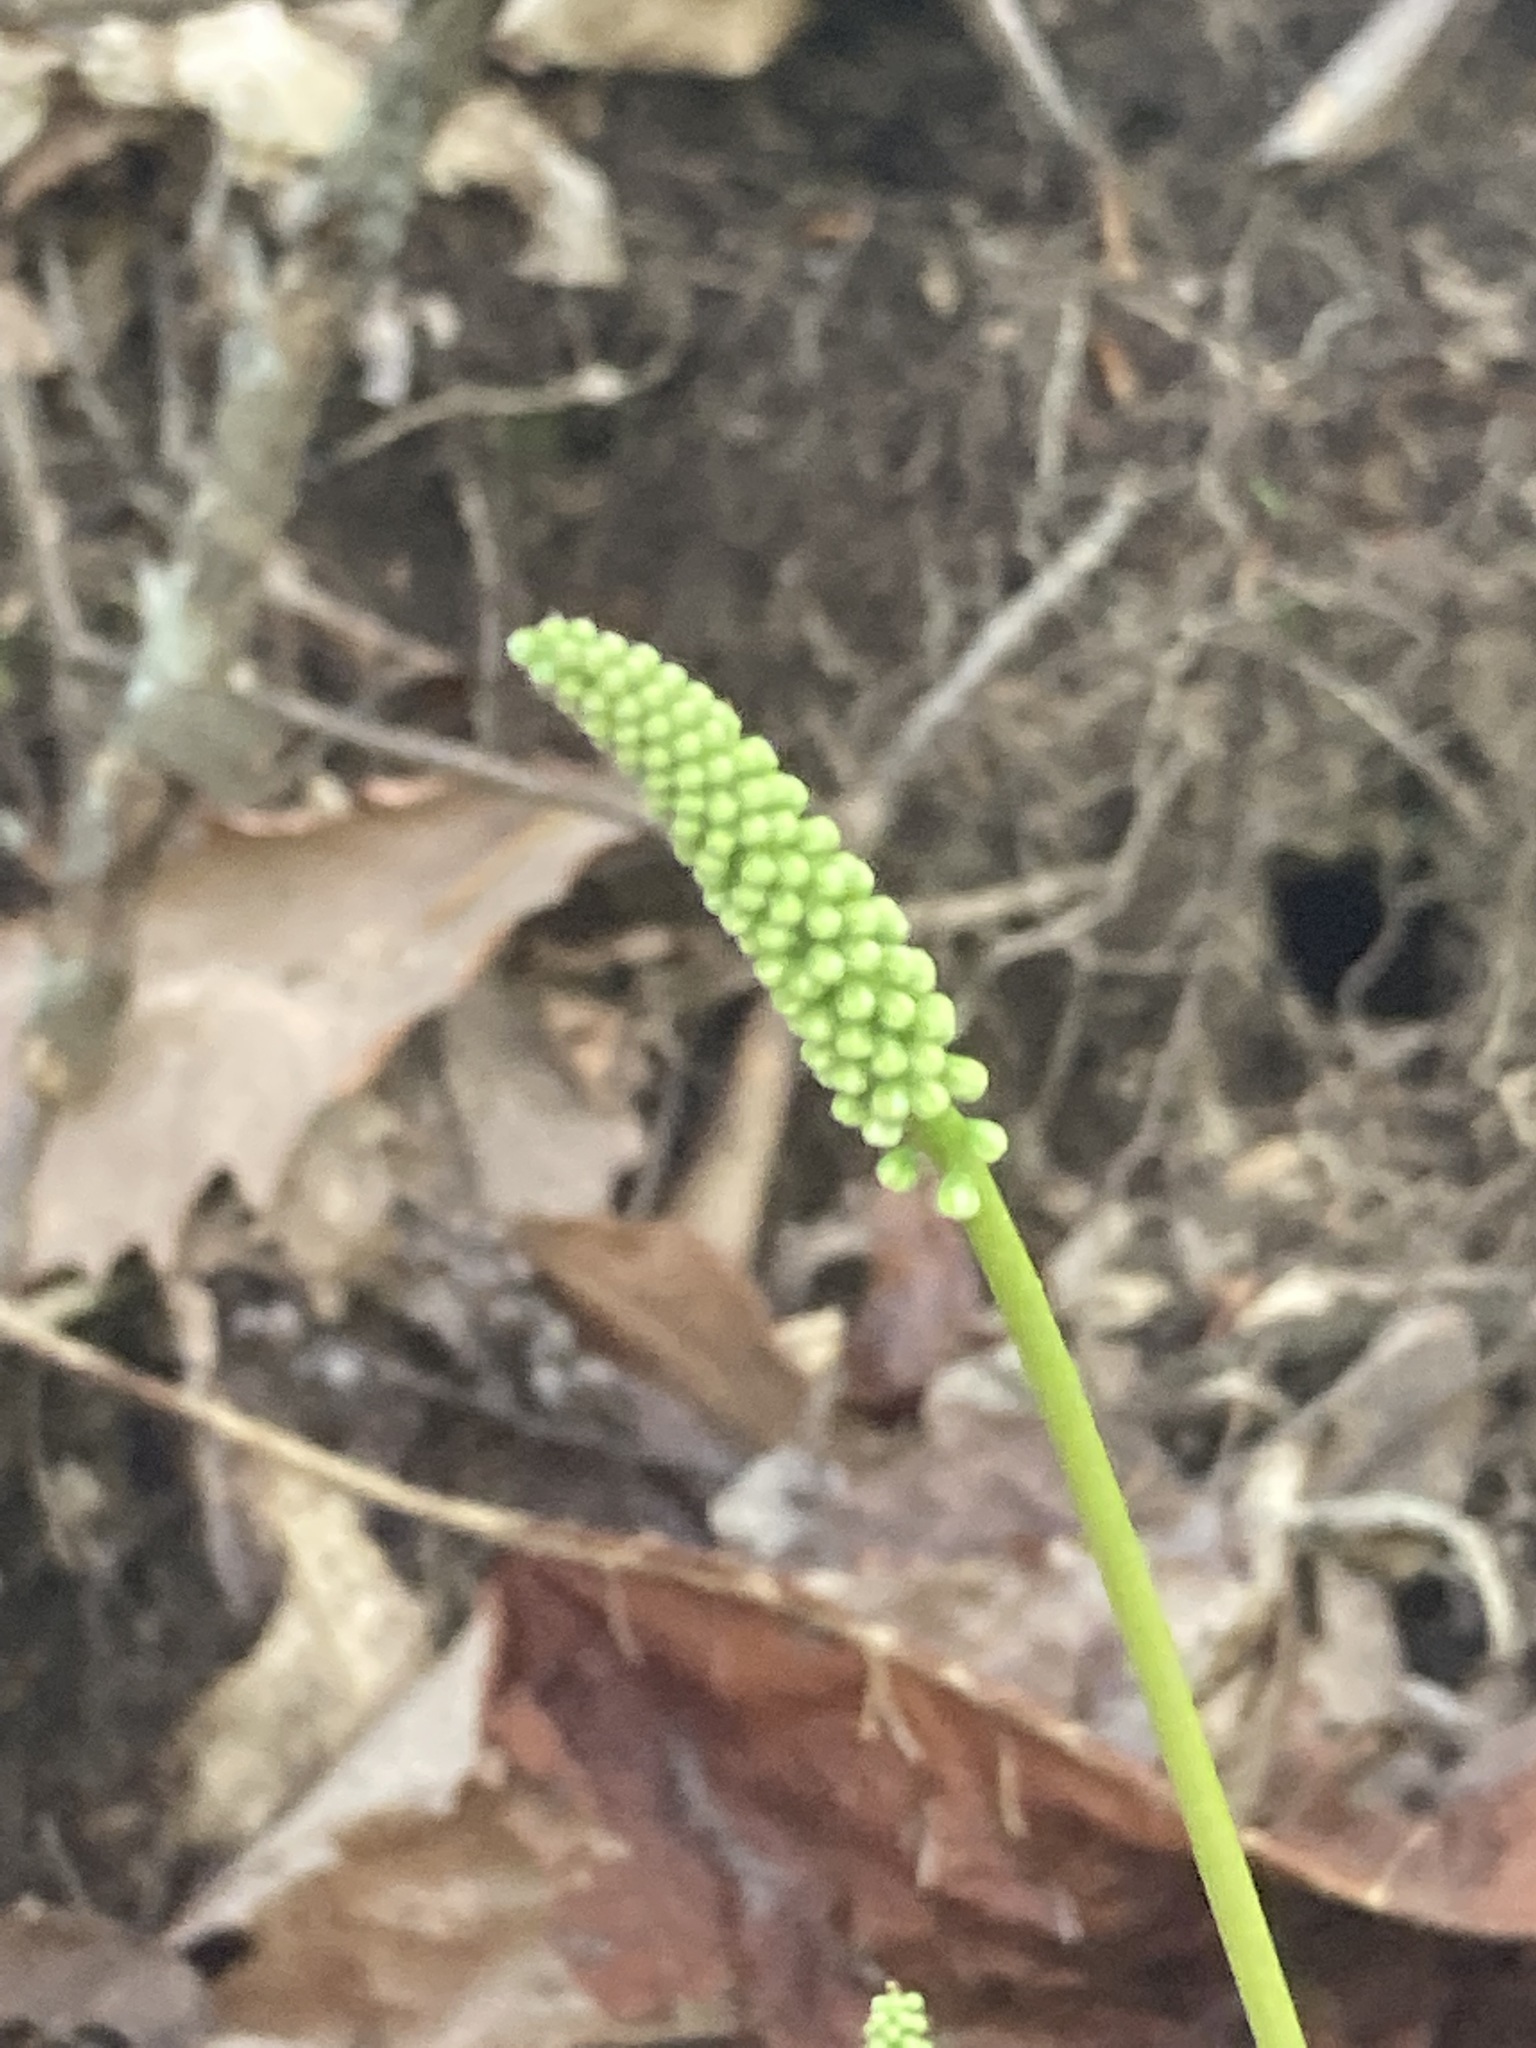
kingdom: Plantae
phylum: Tracheophyta
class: Magnoliopsida
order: Ericales
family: Diapensiaceae
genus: Galax
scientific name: Galax urceolata
